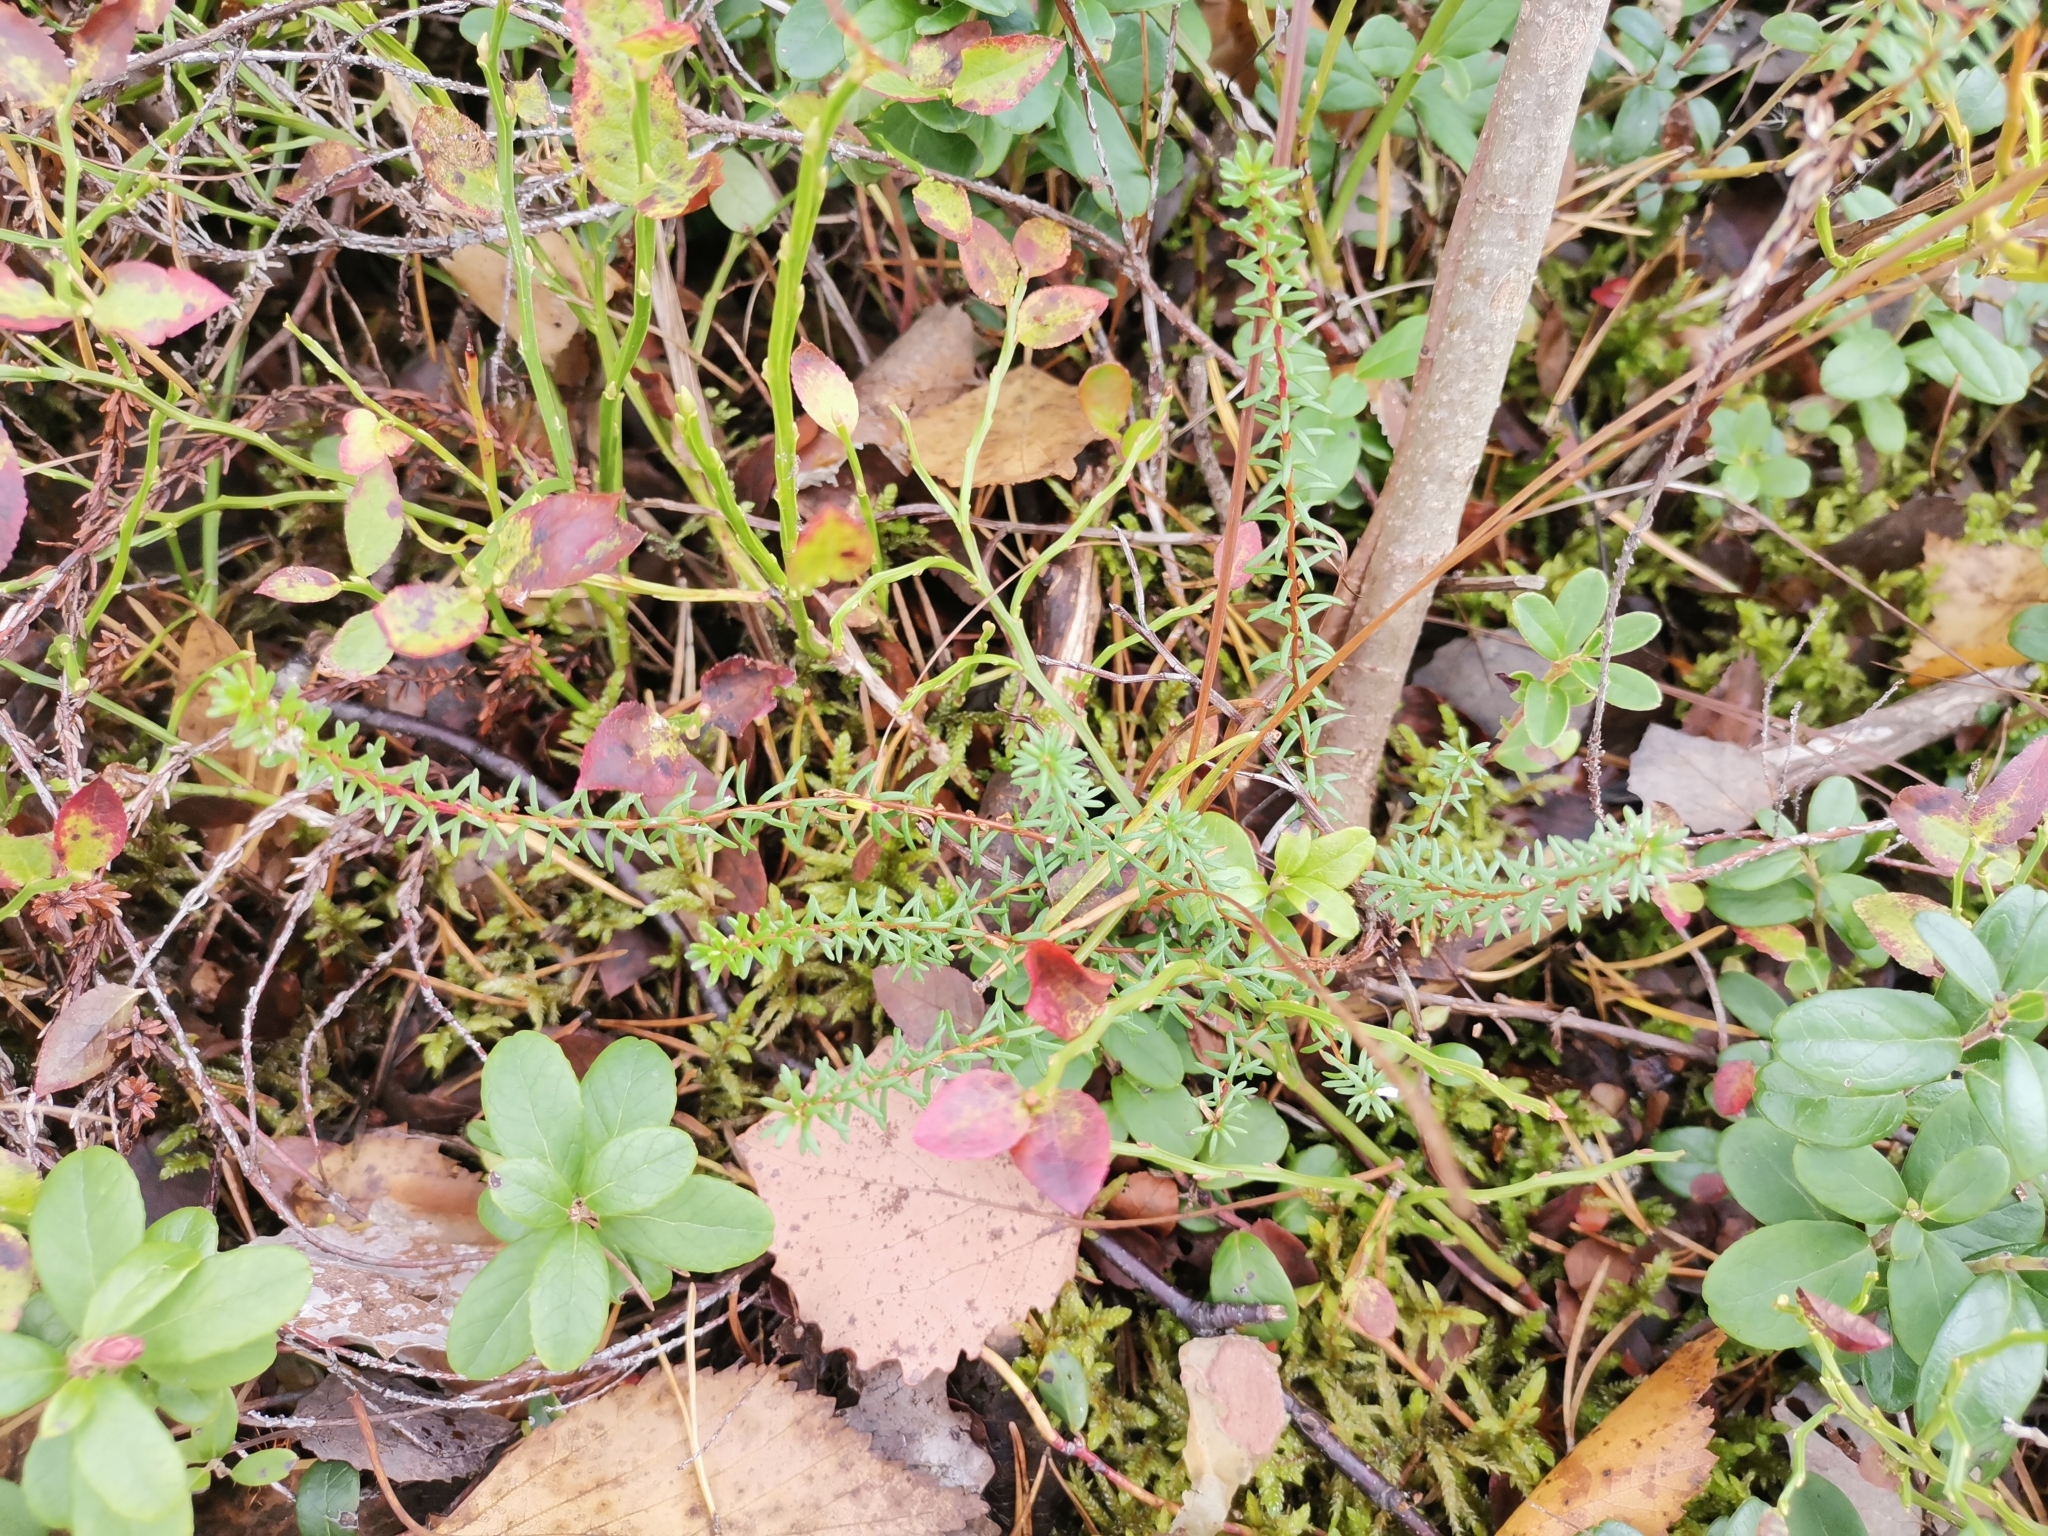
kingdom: Plantae
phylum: Tracheophyta
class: Magnoliopsida
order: Ericales
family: Ericaceae
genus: Empetrum
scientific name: Empetrum nigrum
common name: Black crowberry
